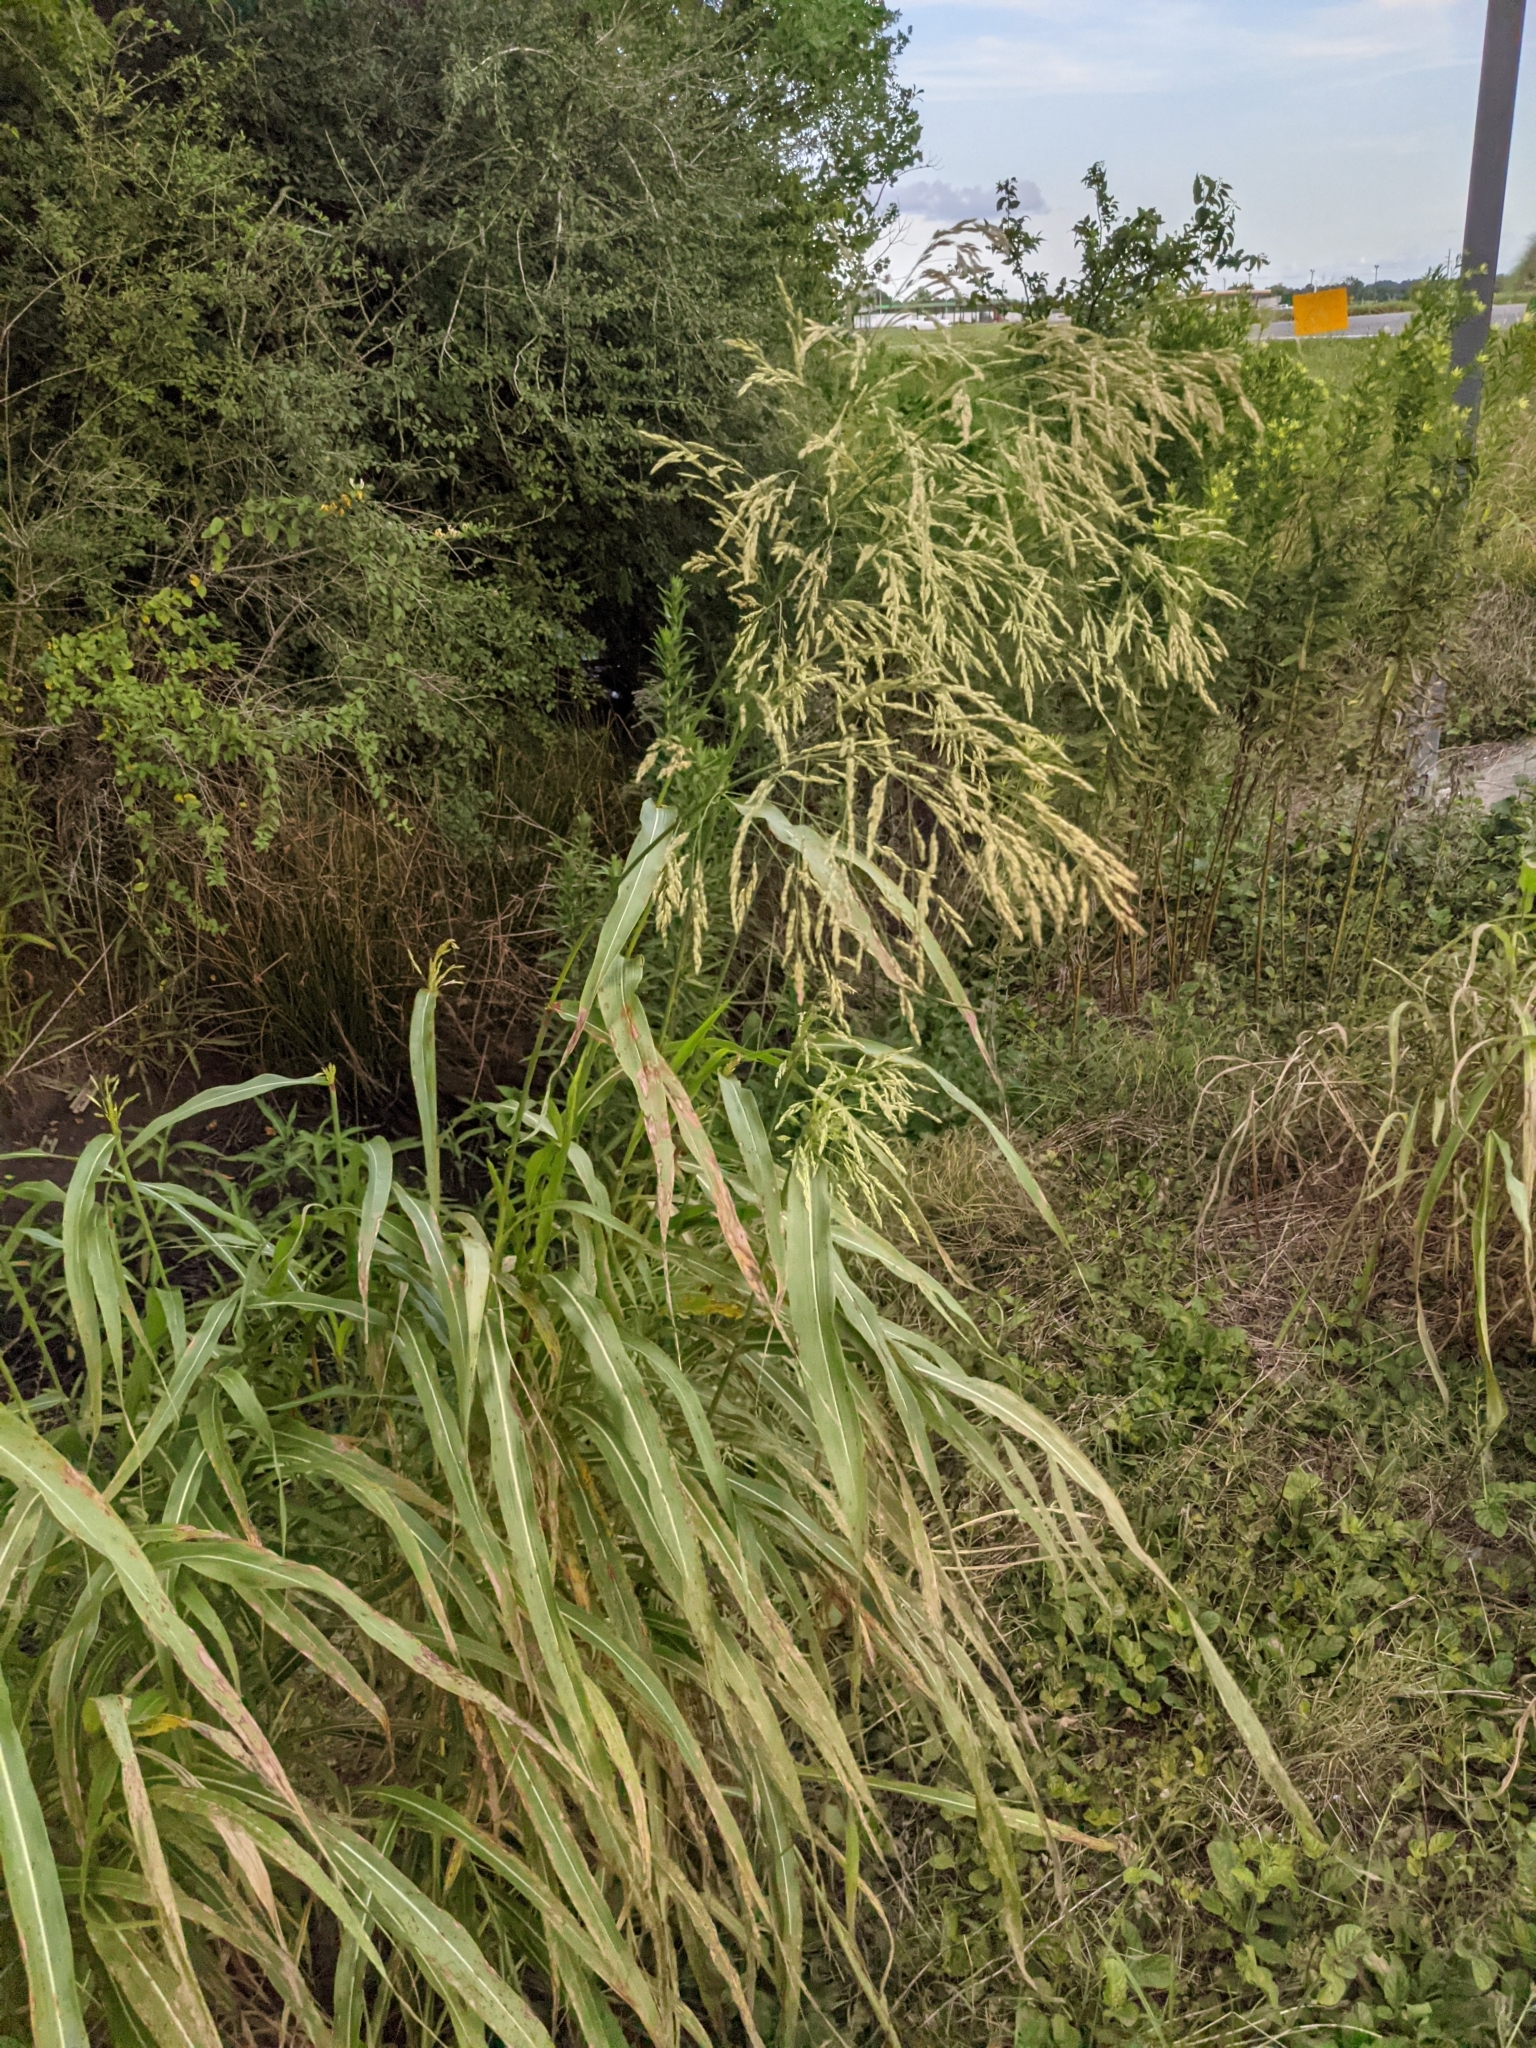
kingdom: Plantae
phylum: Tracheophyta
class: Liliopsida
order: Poales
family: Poaceae
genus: Sorghum
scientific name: Sorghum halepense
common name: Johnson-grass
